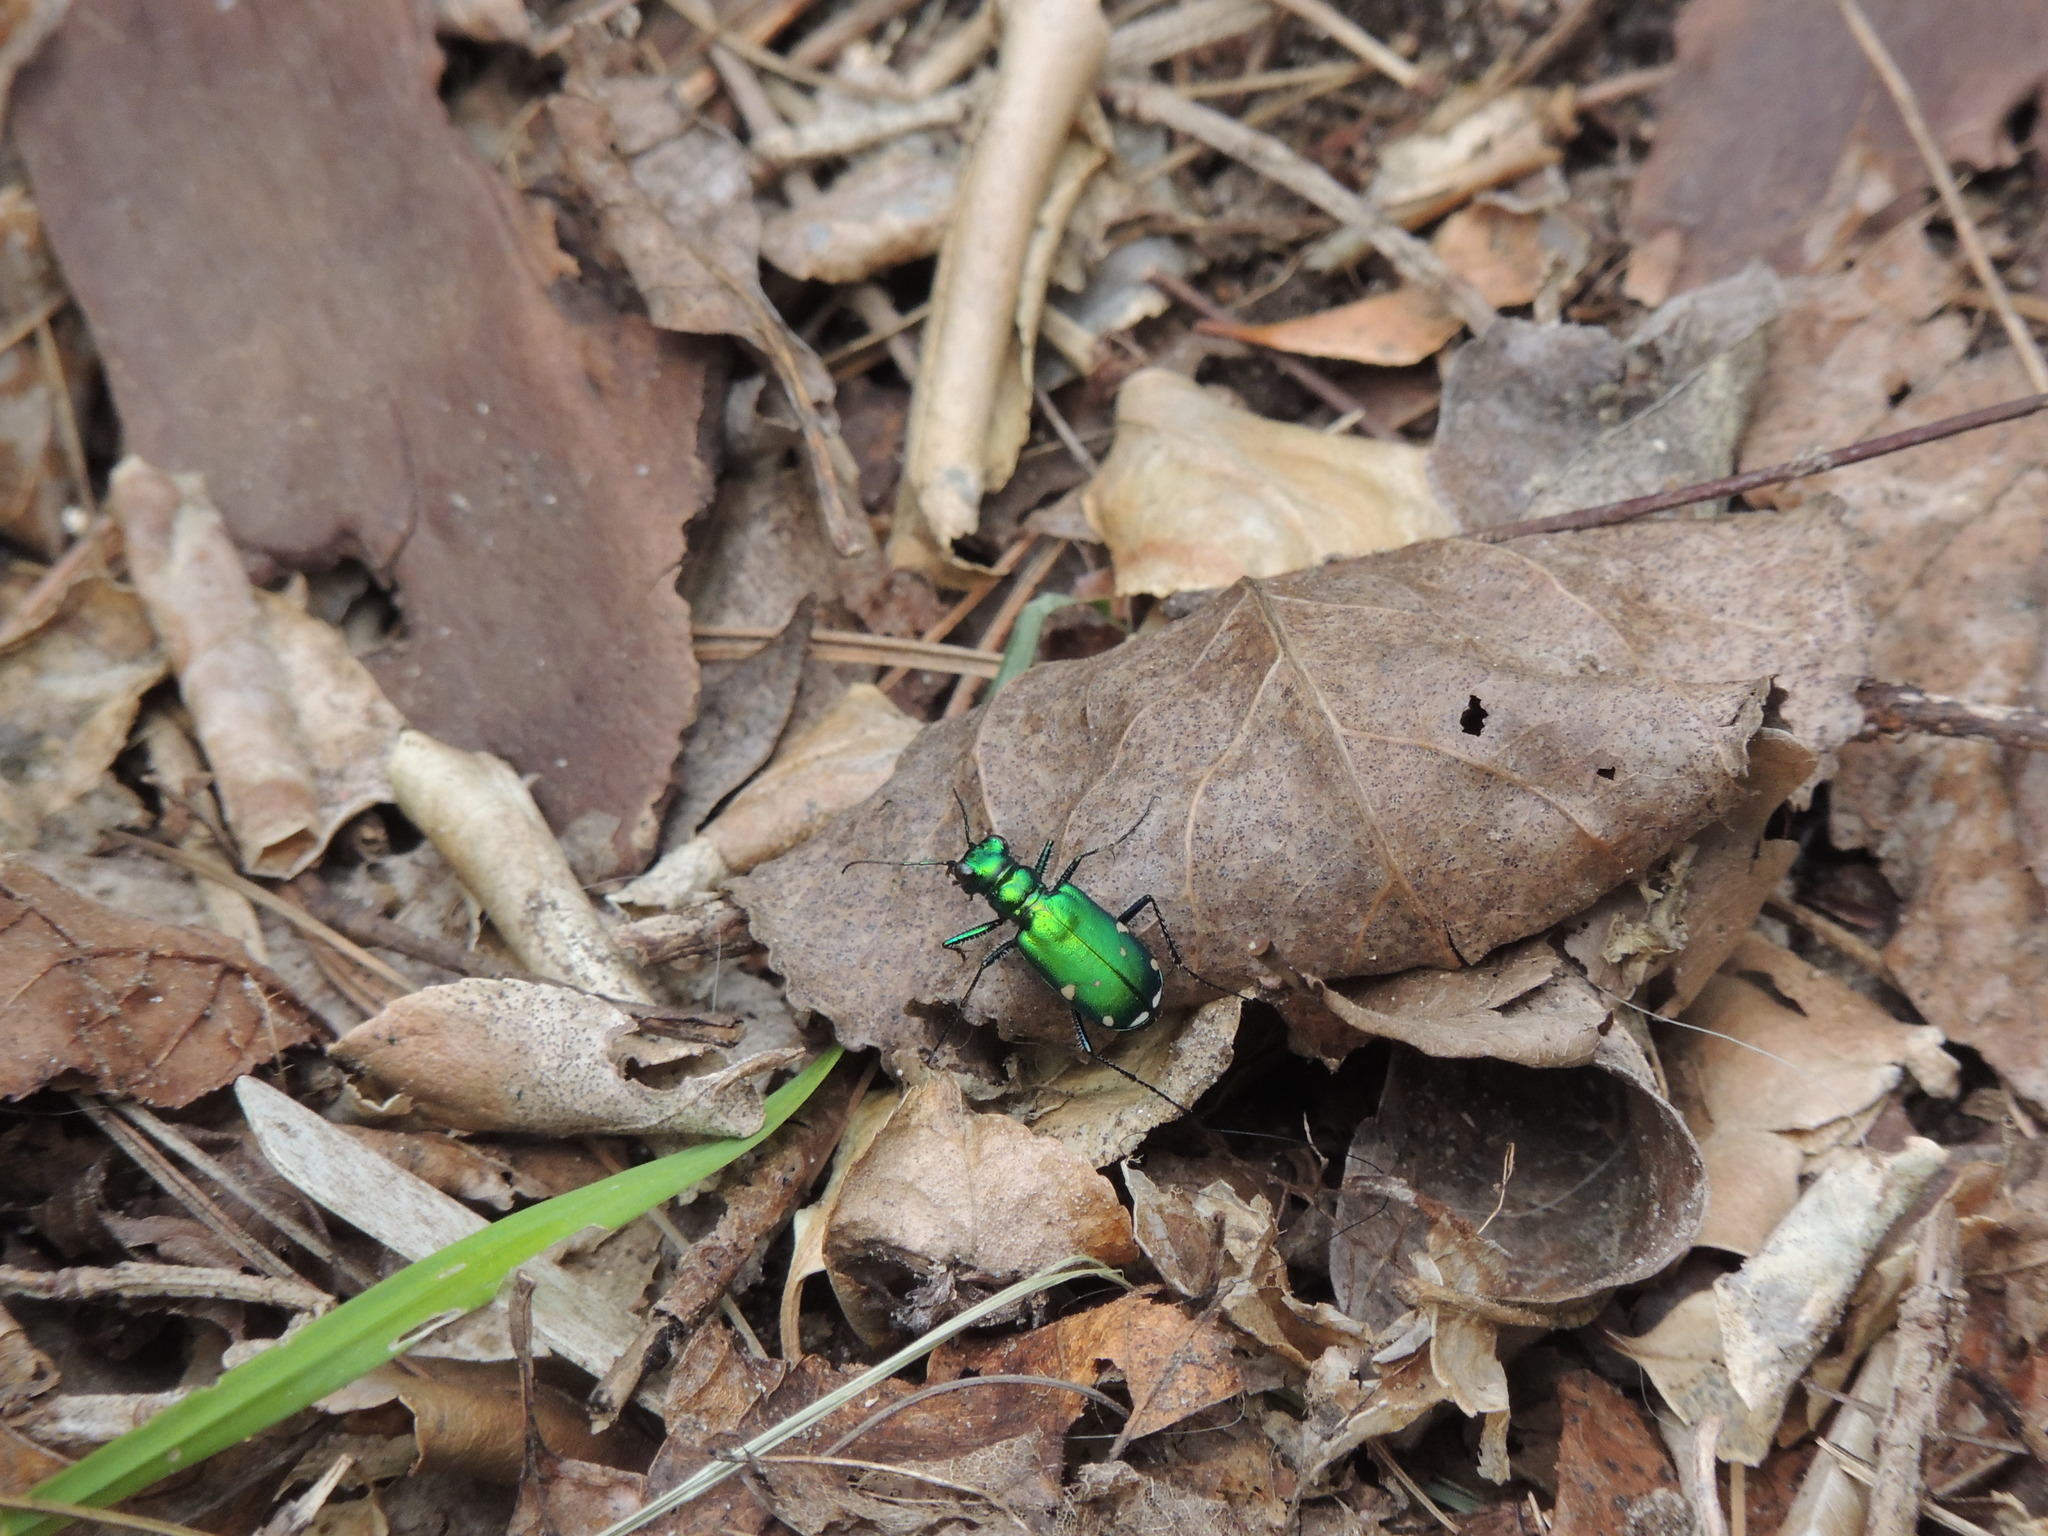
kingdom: Animalia
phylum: Arthropoda
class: Insecta
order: Coleoptera
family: Carabidae
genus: Cicindela
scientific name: Cicindela sexguttata
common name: Six-spotted tiger beetle
